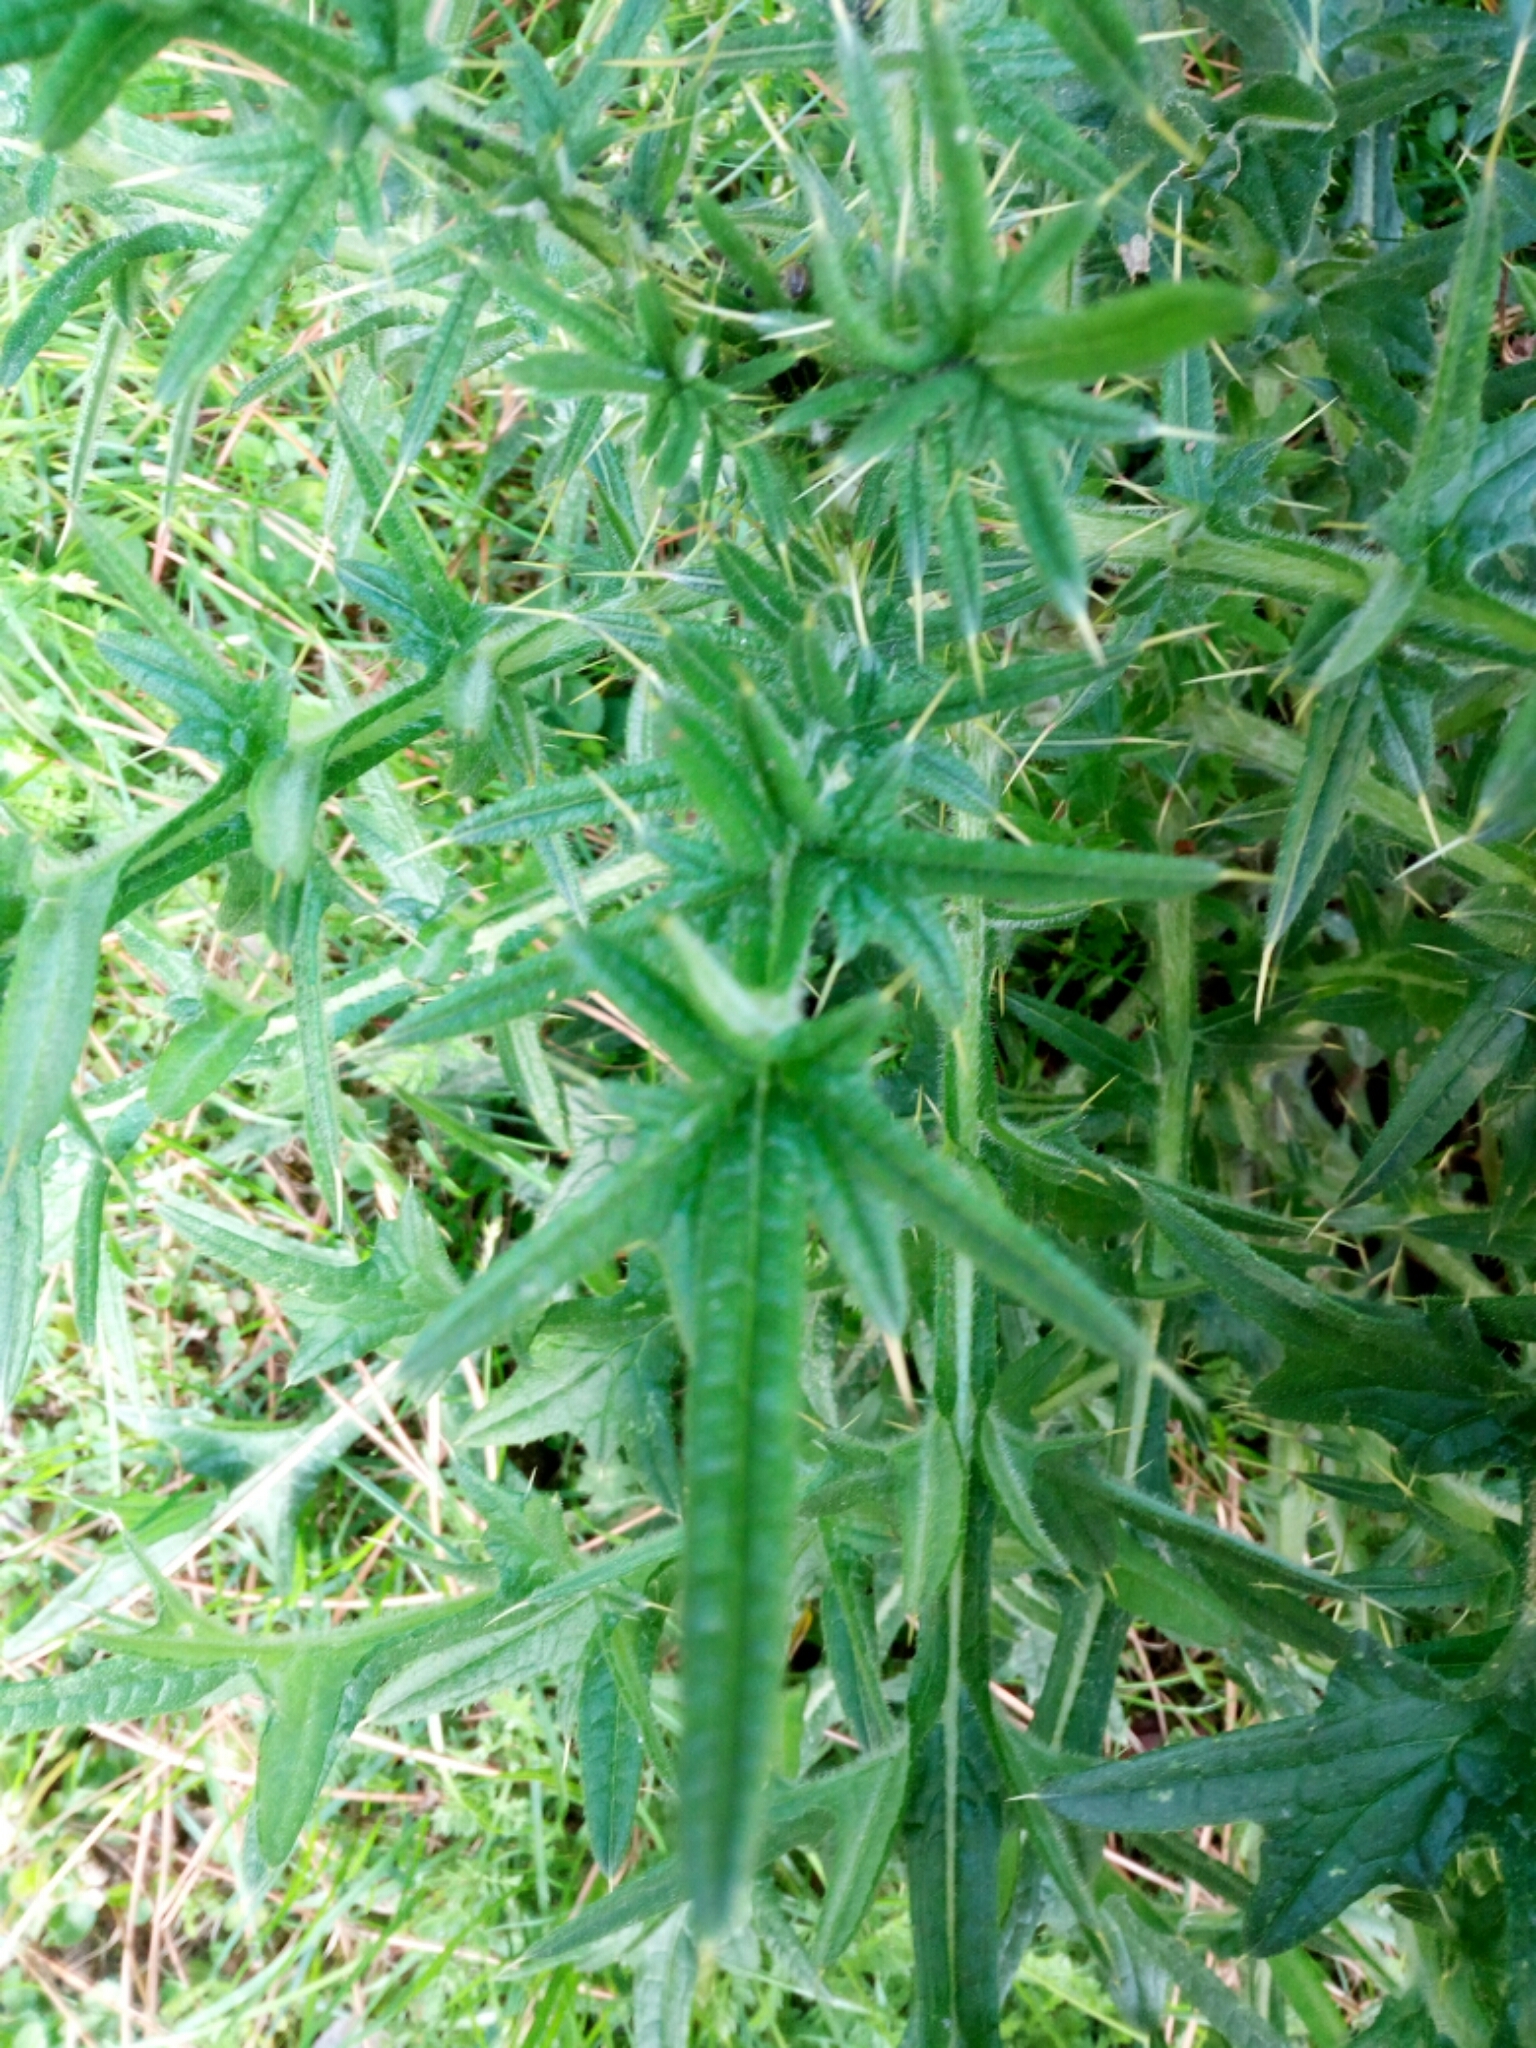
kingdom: Plantae
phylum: Tracheophyta
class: Magnoliopsida
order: Asterales
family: Asteraceae
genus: Cirsium
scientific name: Cirsium vulgare
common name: Bull thistle
